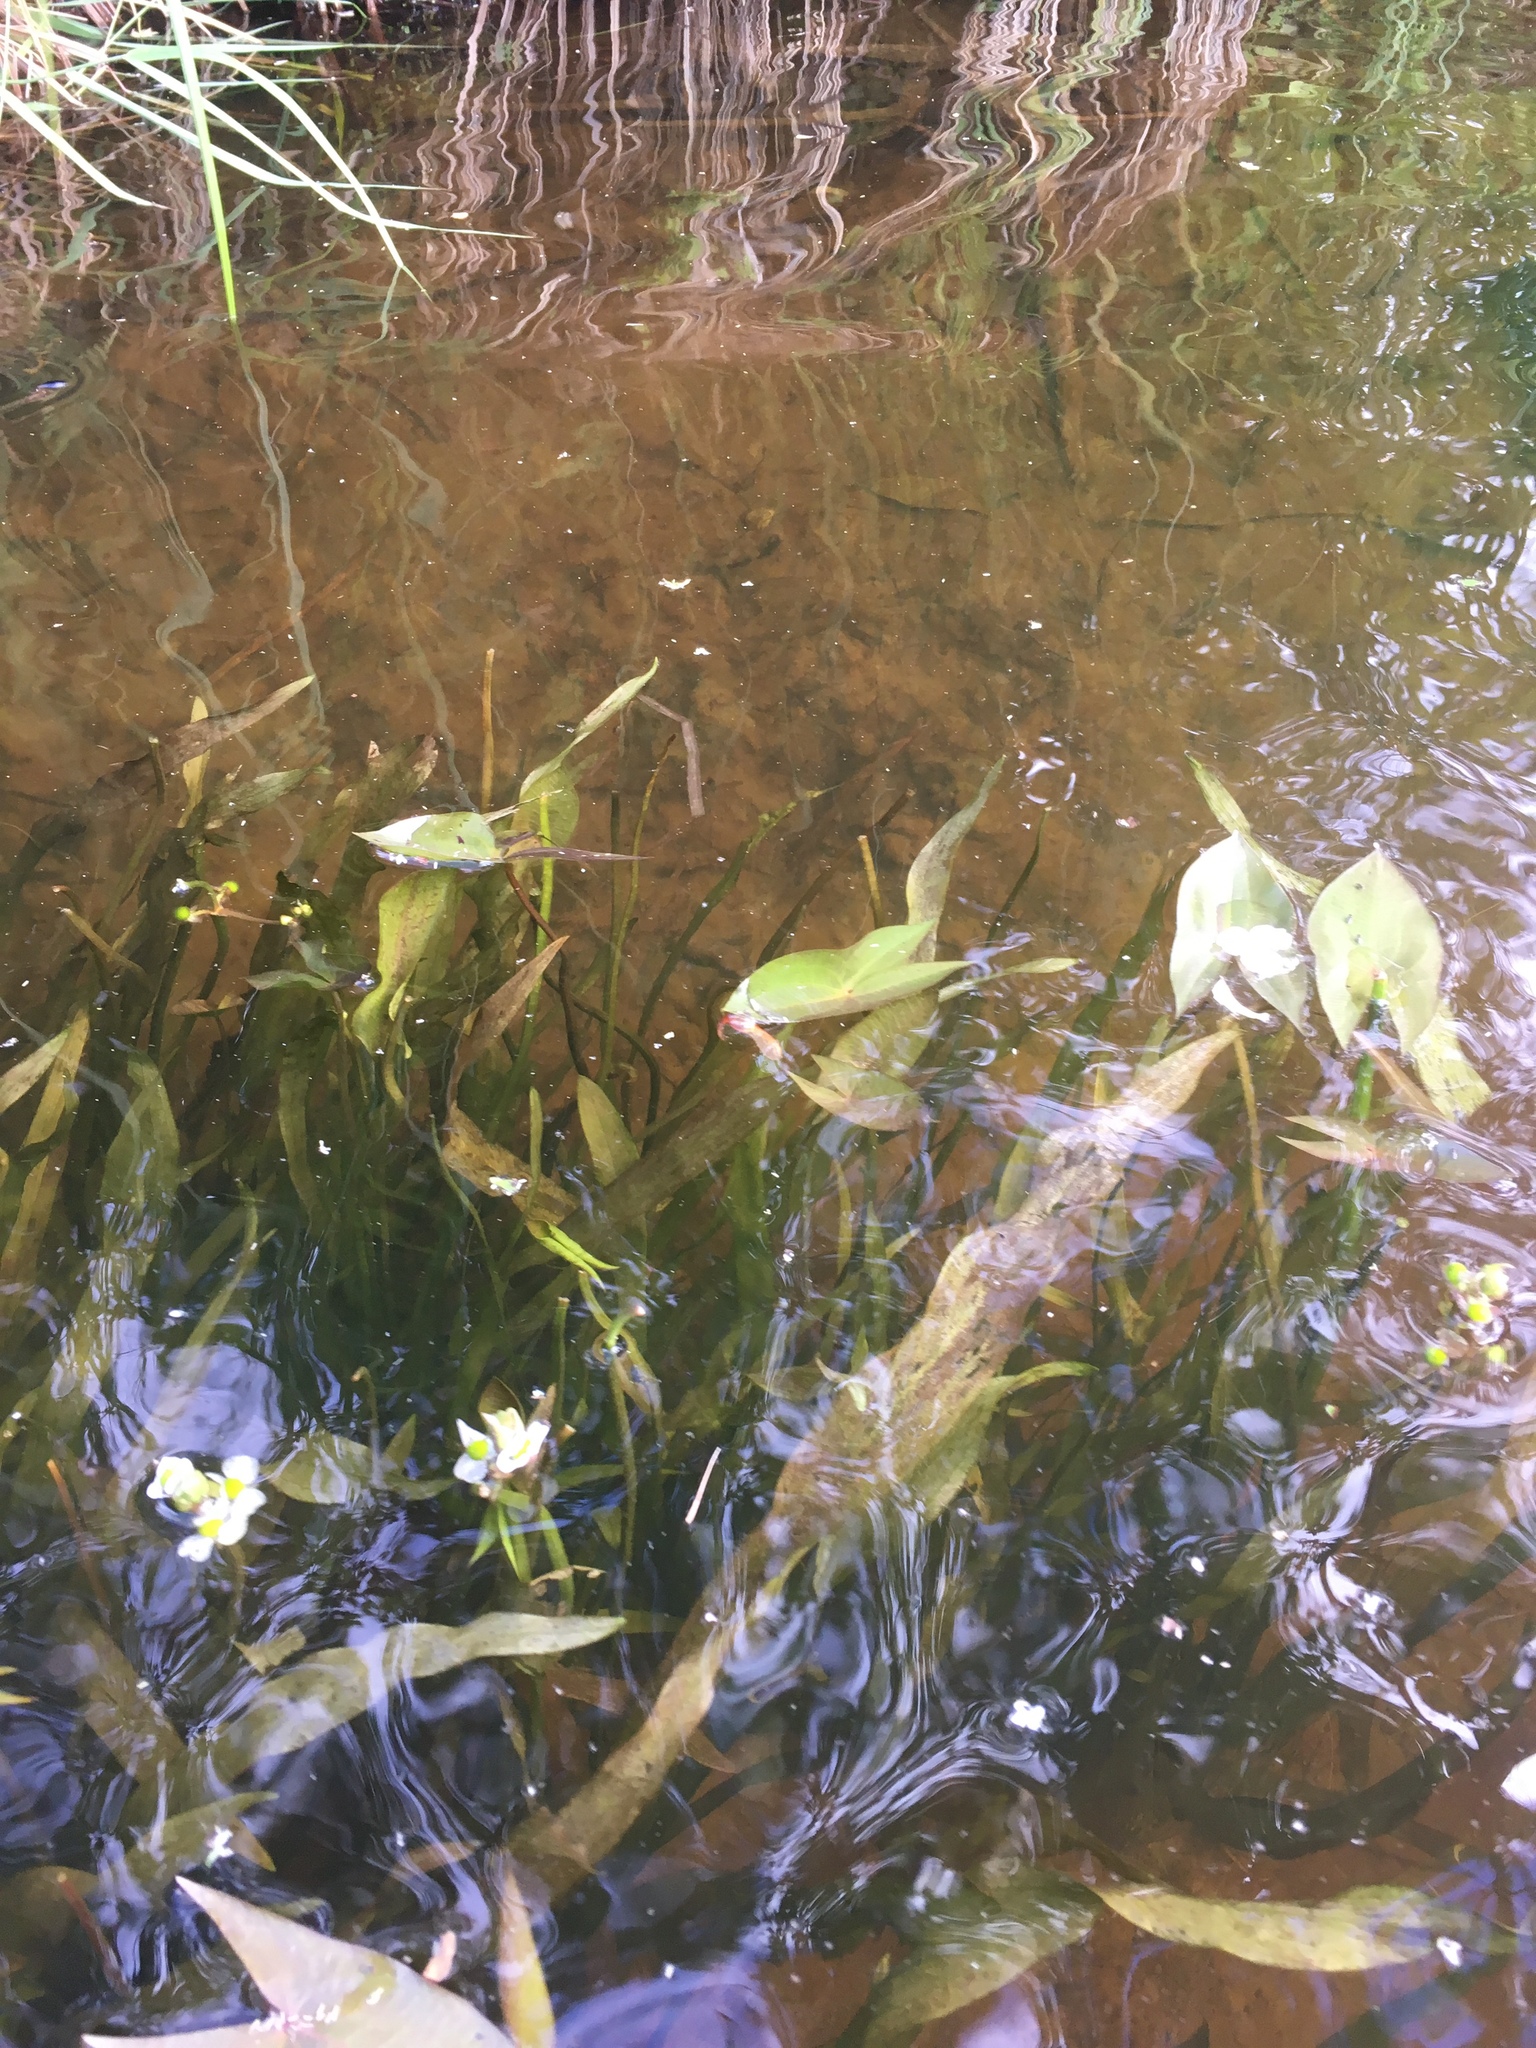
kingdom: Plantae
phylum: Tracheophyta
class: Liliopsida
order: Alismatales
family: Alismataceae
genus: Sagittaria
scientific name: Sagittaria cuneata
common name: Northern arrowhead
